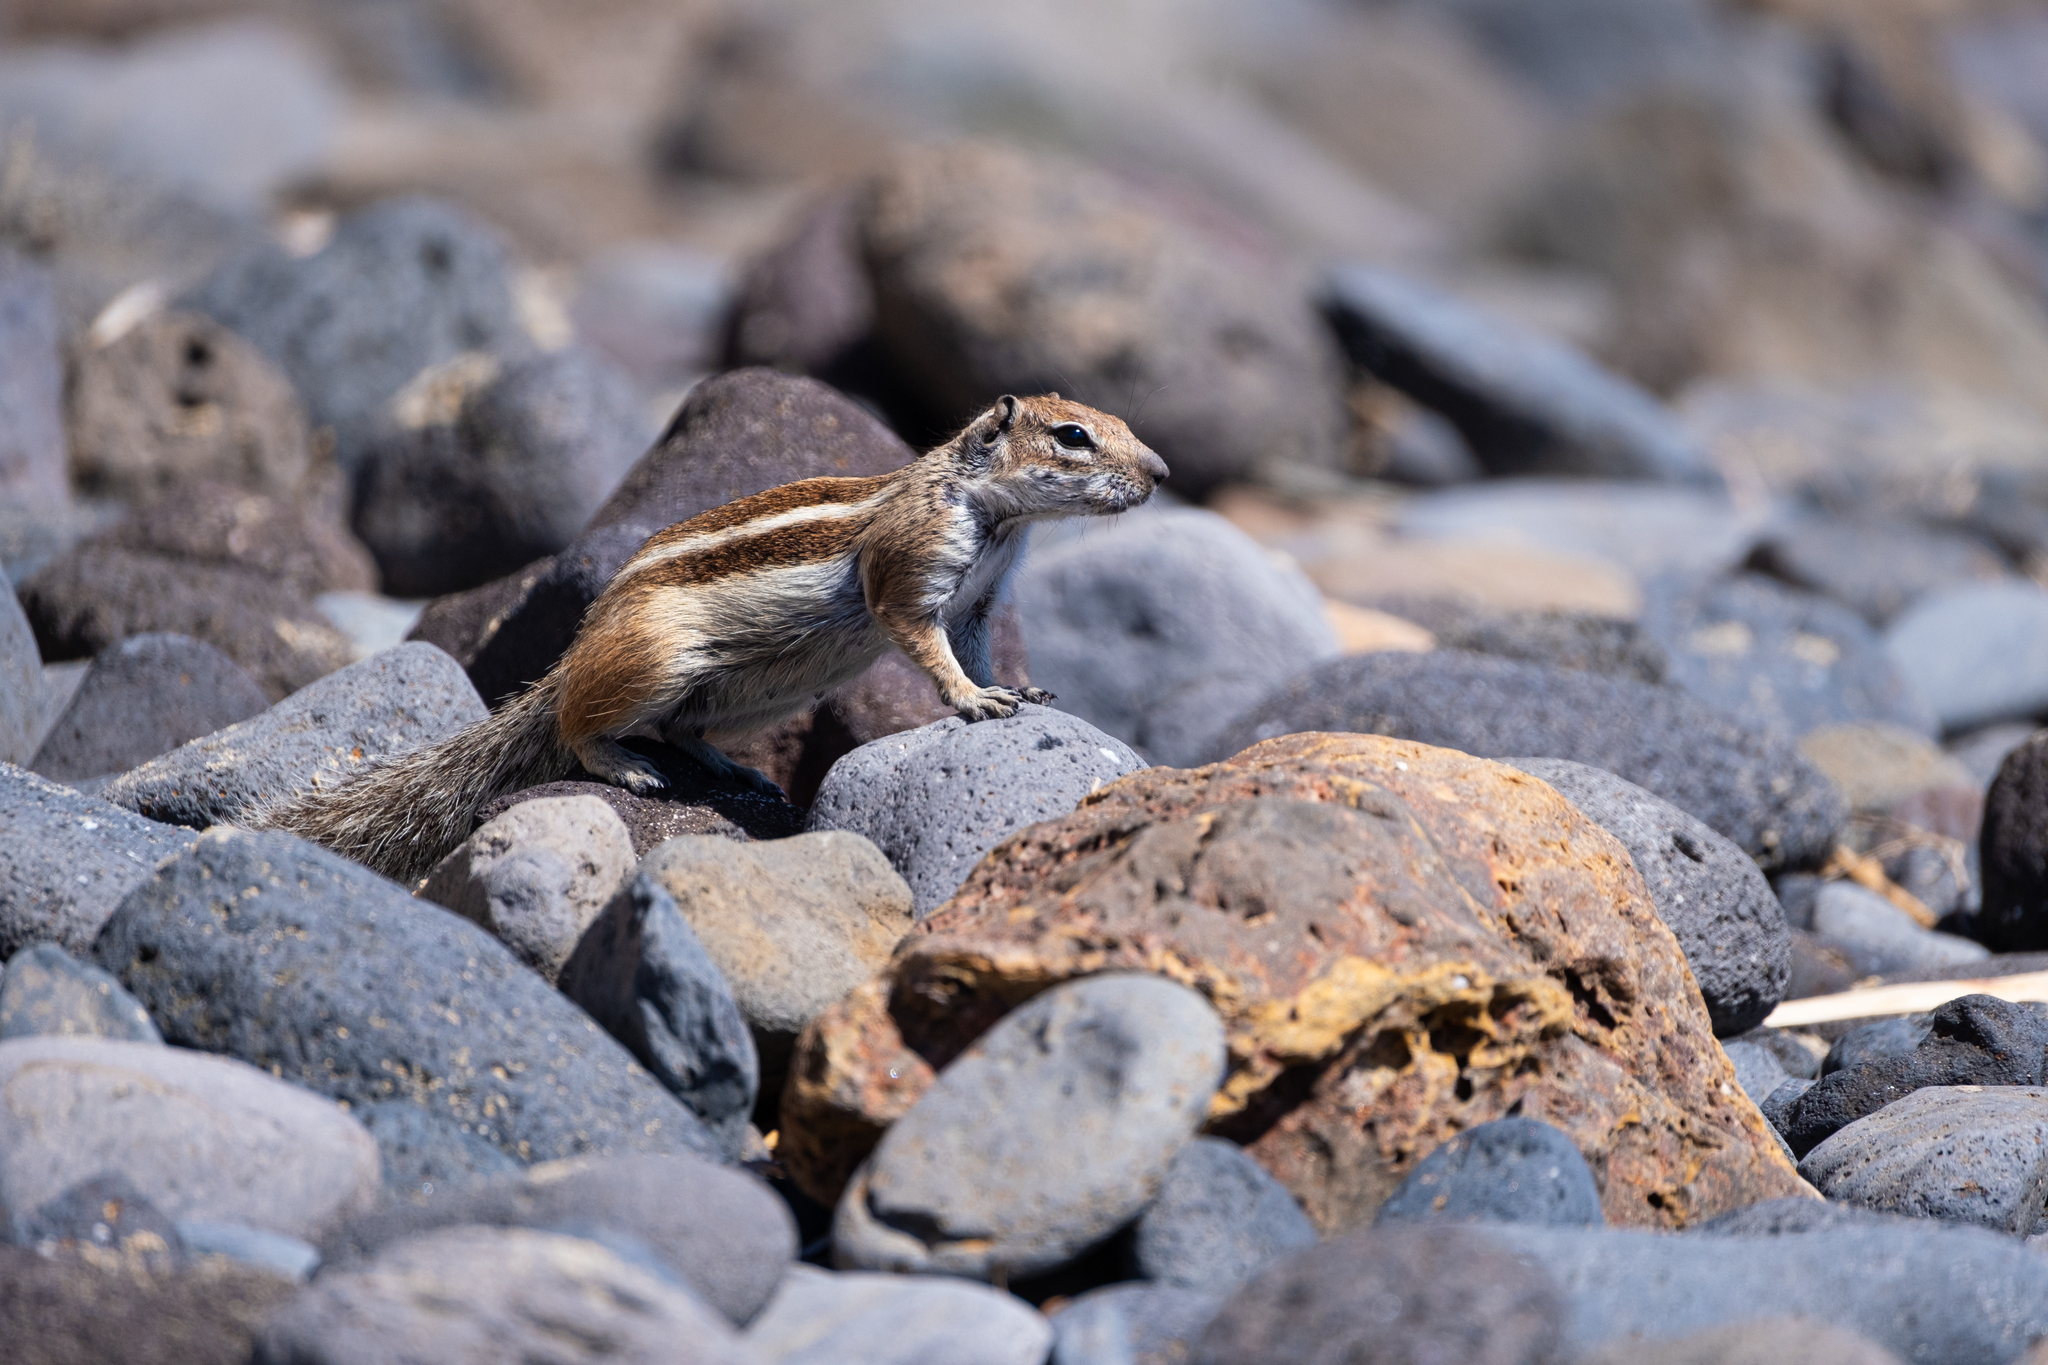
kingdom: Animalia
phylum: Chordata
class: Mammalia
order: Rodentia
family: Sciuridae
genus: Atlantoxerus
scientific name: Atlantoxerus getulus
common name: Barbary ground squirrel
